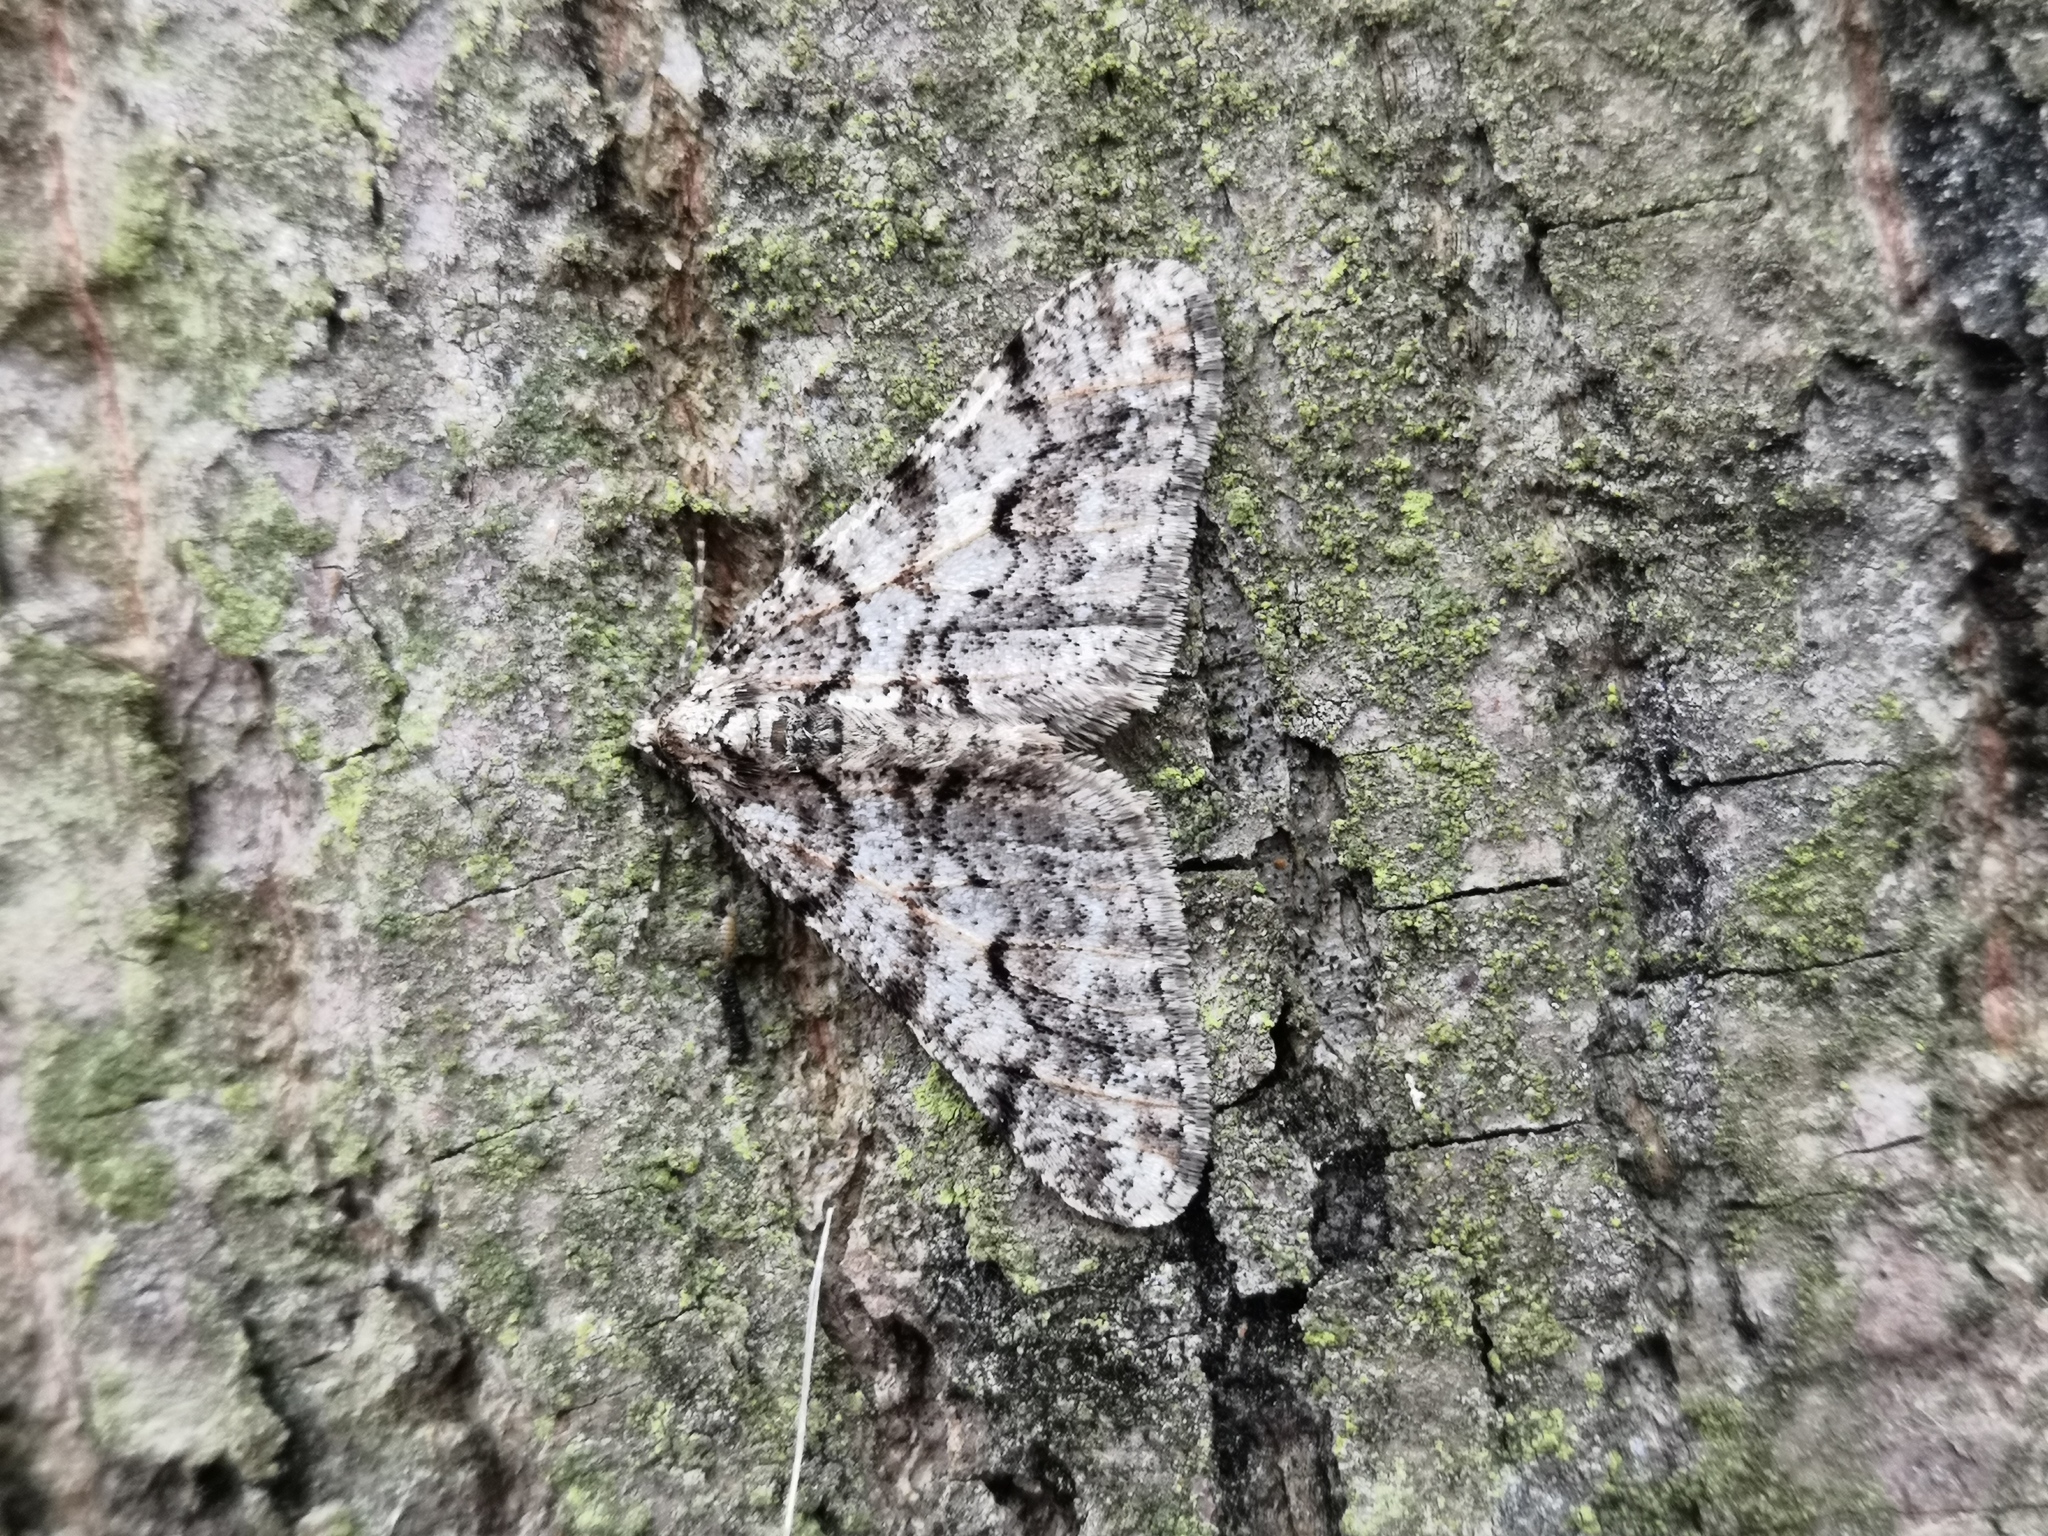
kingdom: Animalia
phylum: Arthropoda
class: Insecta
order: Lepidoptera
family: Geometridae
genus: Agriopis
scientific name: Agriopis leucophaearia
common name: Spring usher
